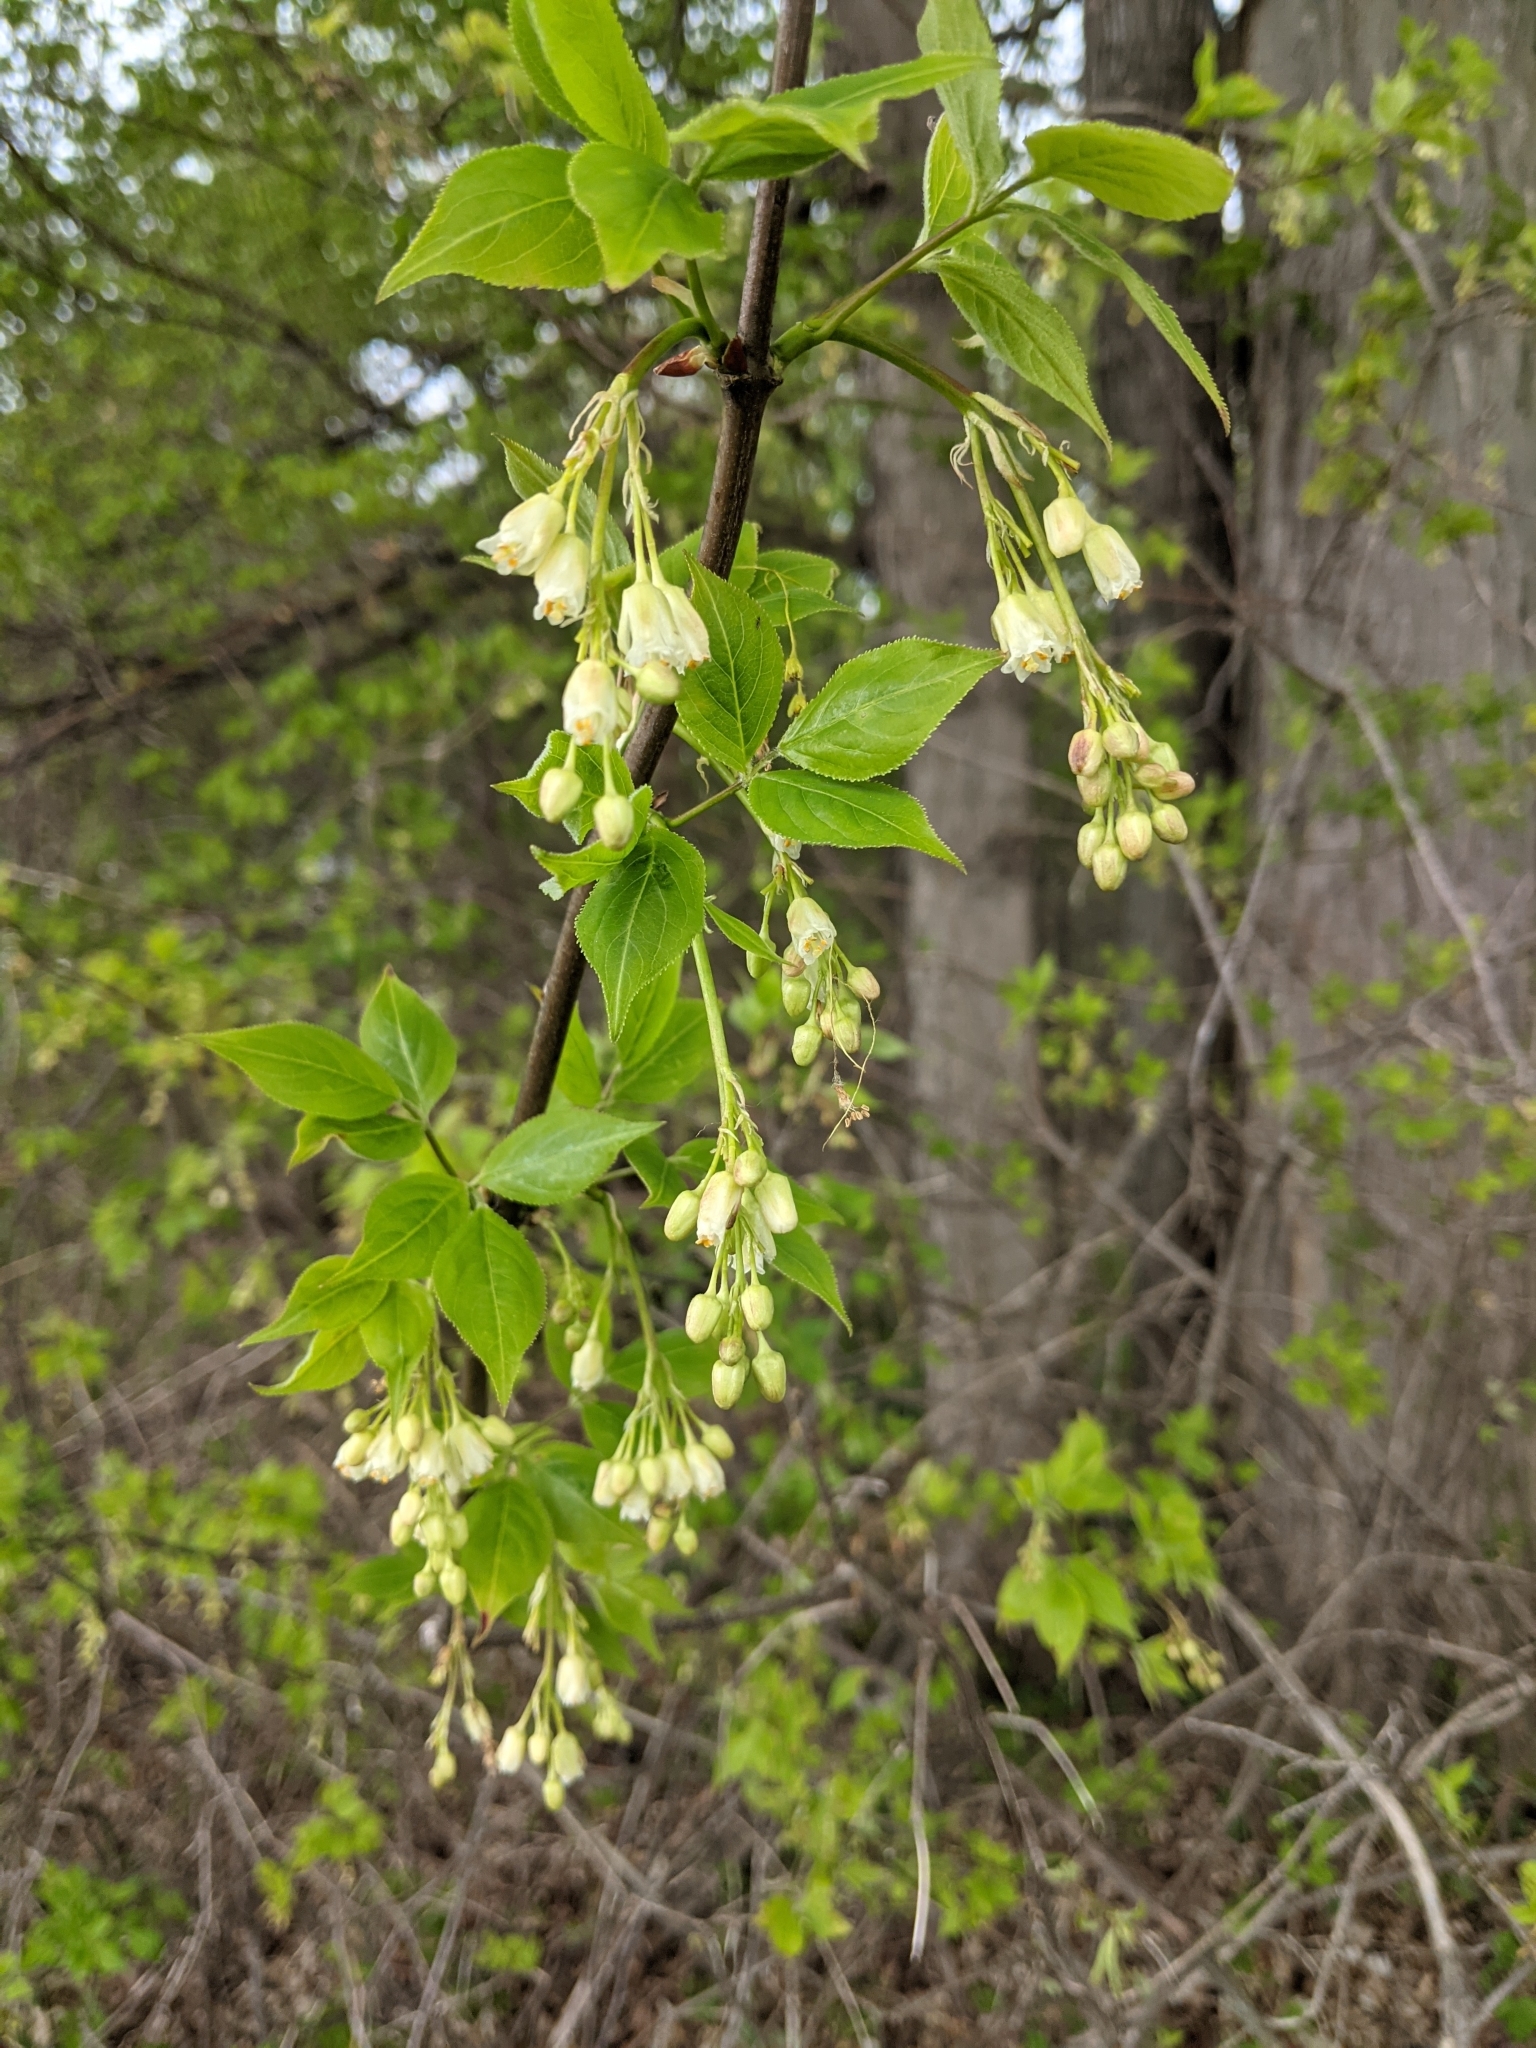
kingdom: Plantae
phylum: Tracheophyta
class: Magnoliopsida
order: Crossosomatales
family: Staphyleaceae
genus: Staphylea
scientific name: Staphylea trifolia
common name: American bladdernut
